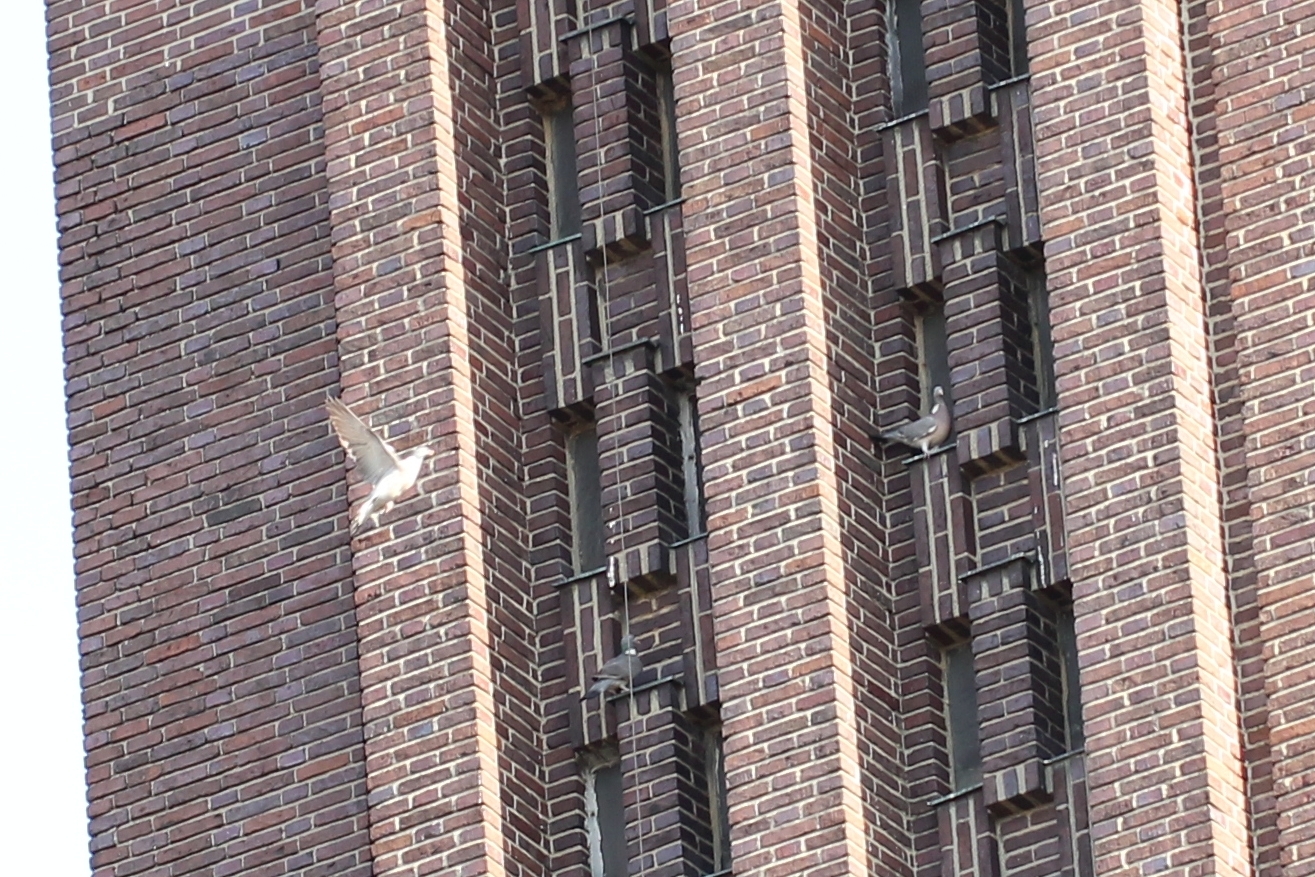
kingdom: Animalia
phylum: Chordata
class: Aves
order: Columbiformes
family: Columbidae
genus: Columba
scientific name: Columba palumbus
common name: Common wood pigeon
